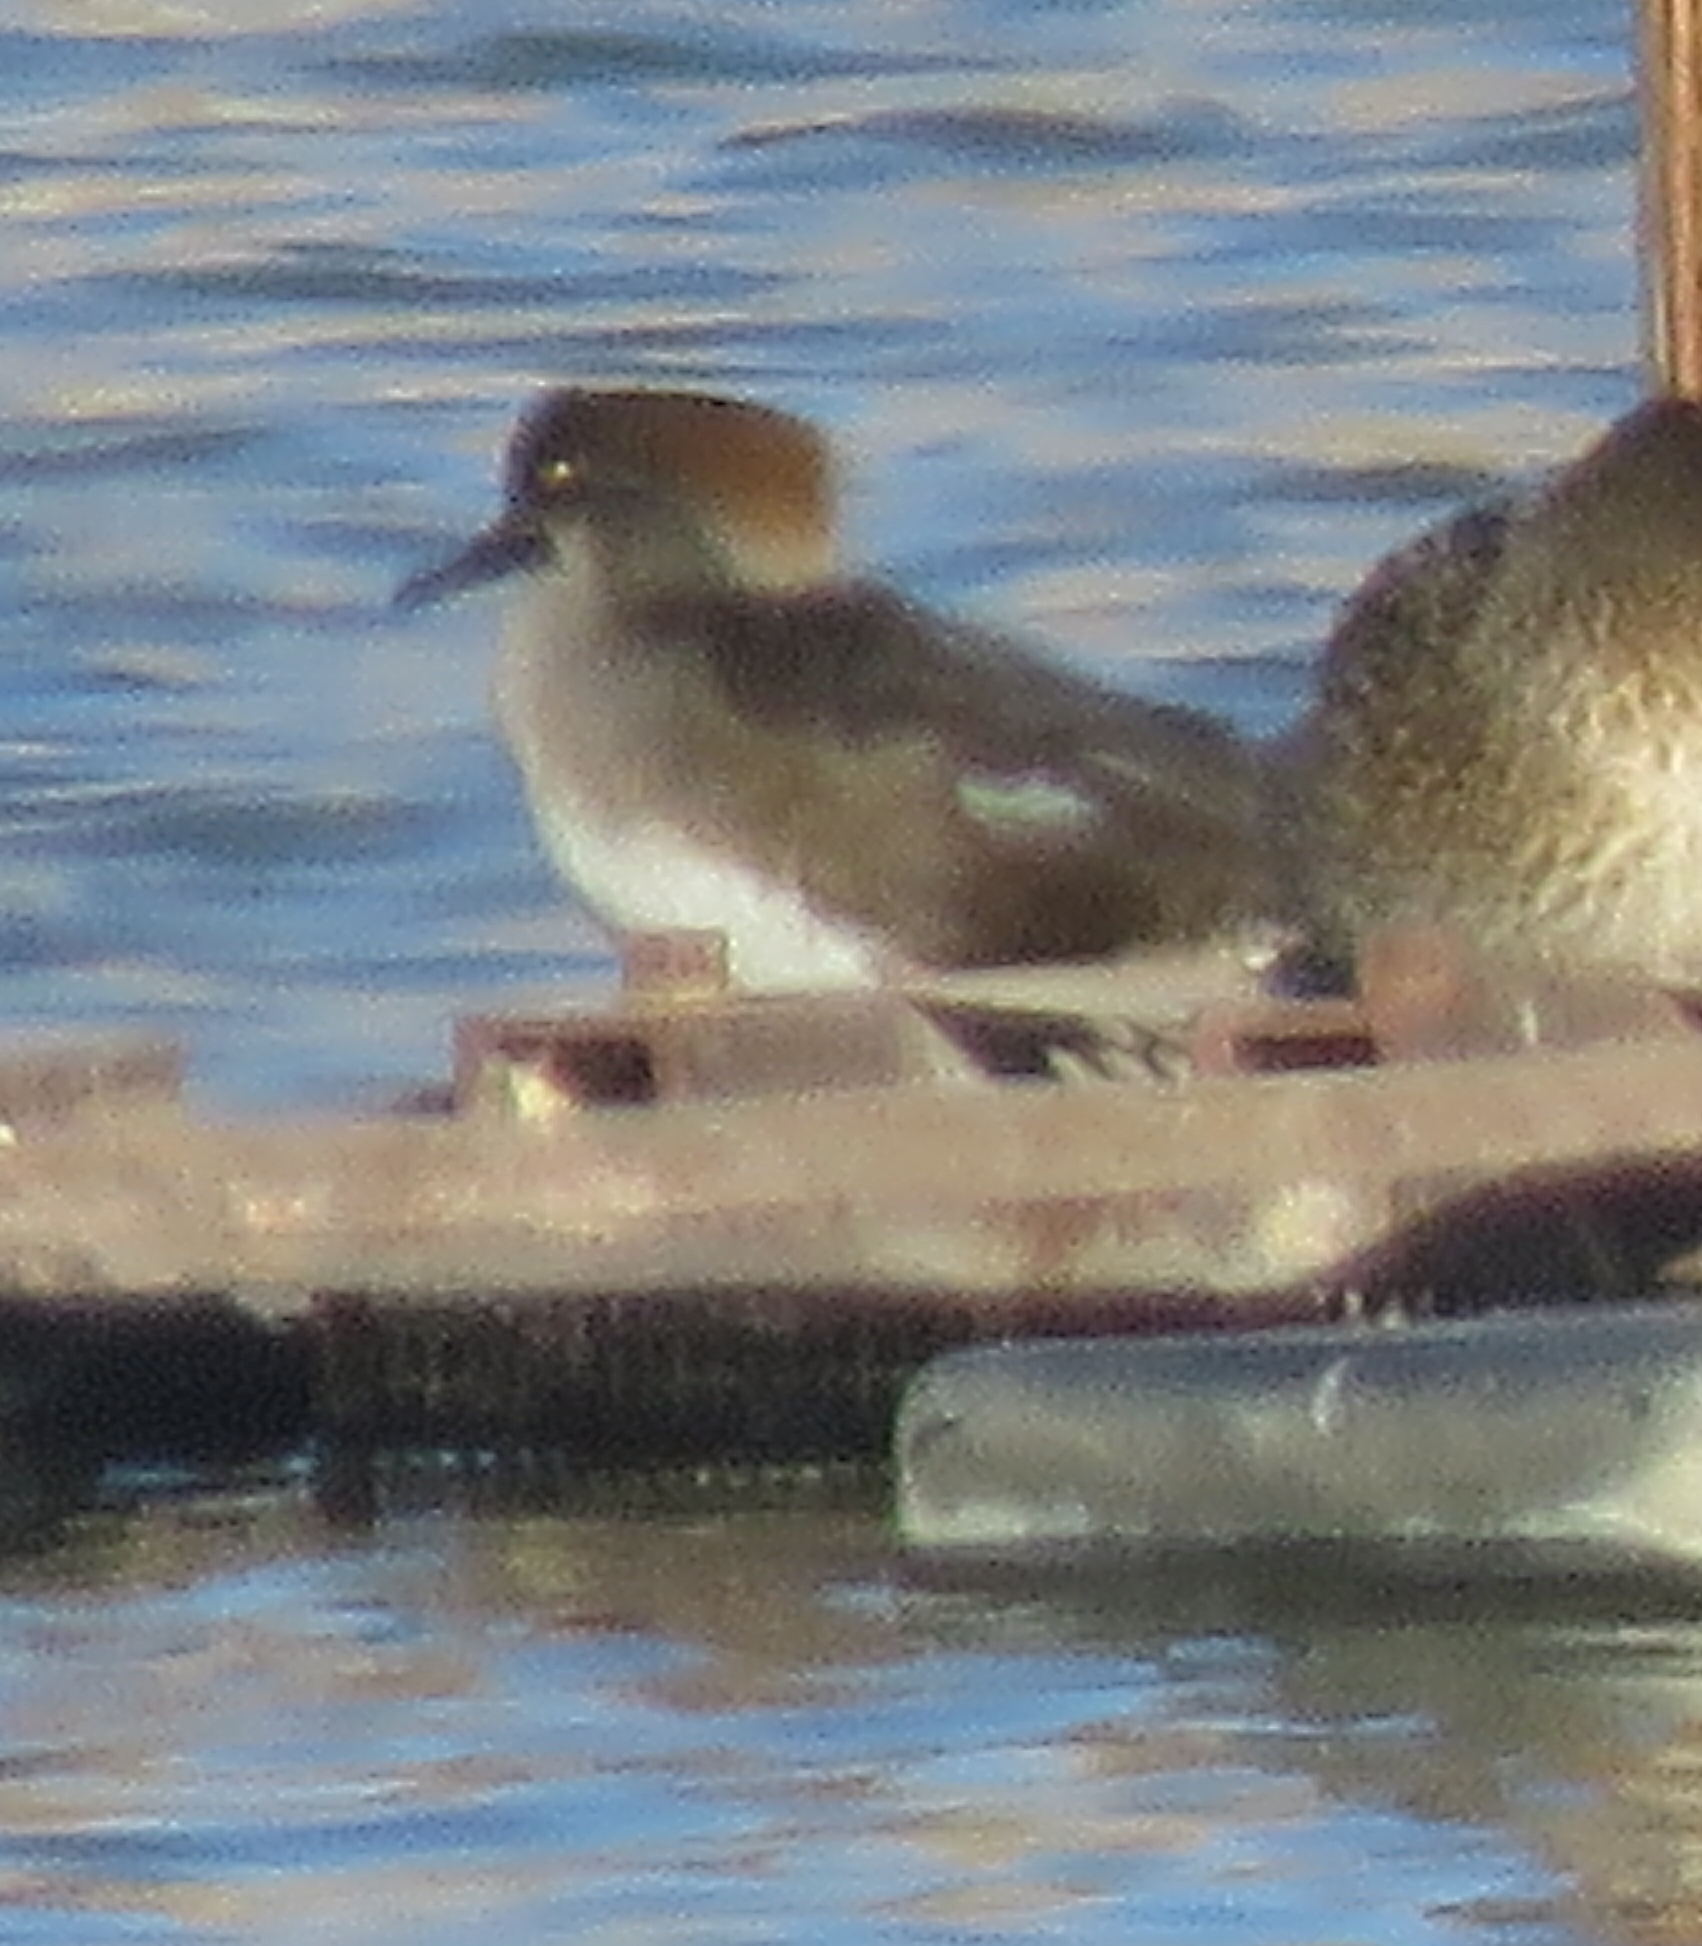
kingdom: Animalia
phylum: Chordata
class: Aves
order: Anseriformes
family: Anatidae
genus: Lophodytes
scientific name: Lophodytes cucullatus
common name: Hooded merganser
